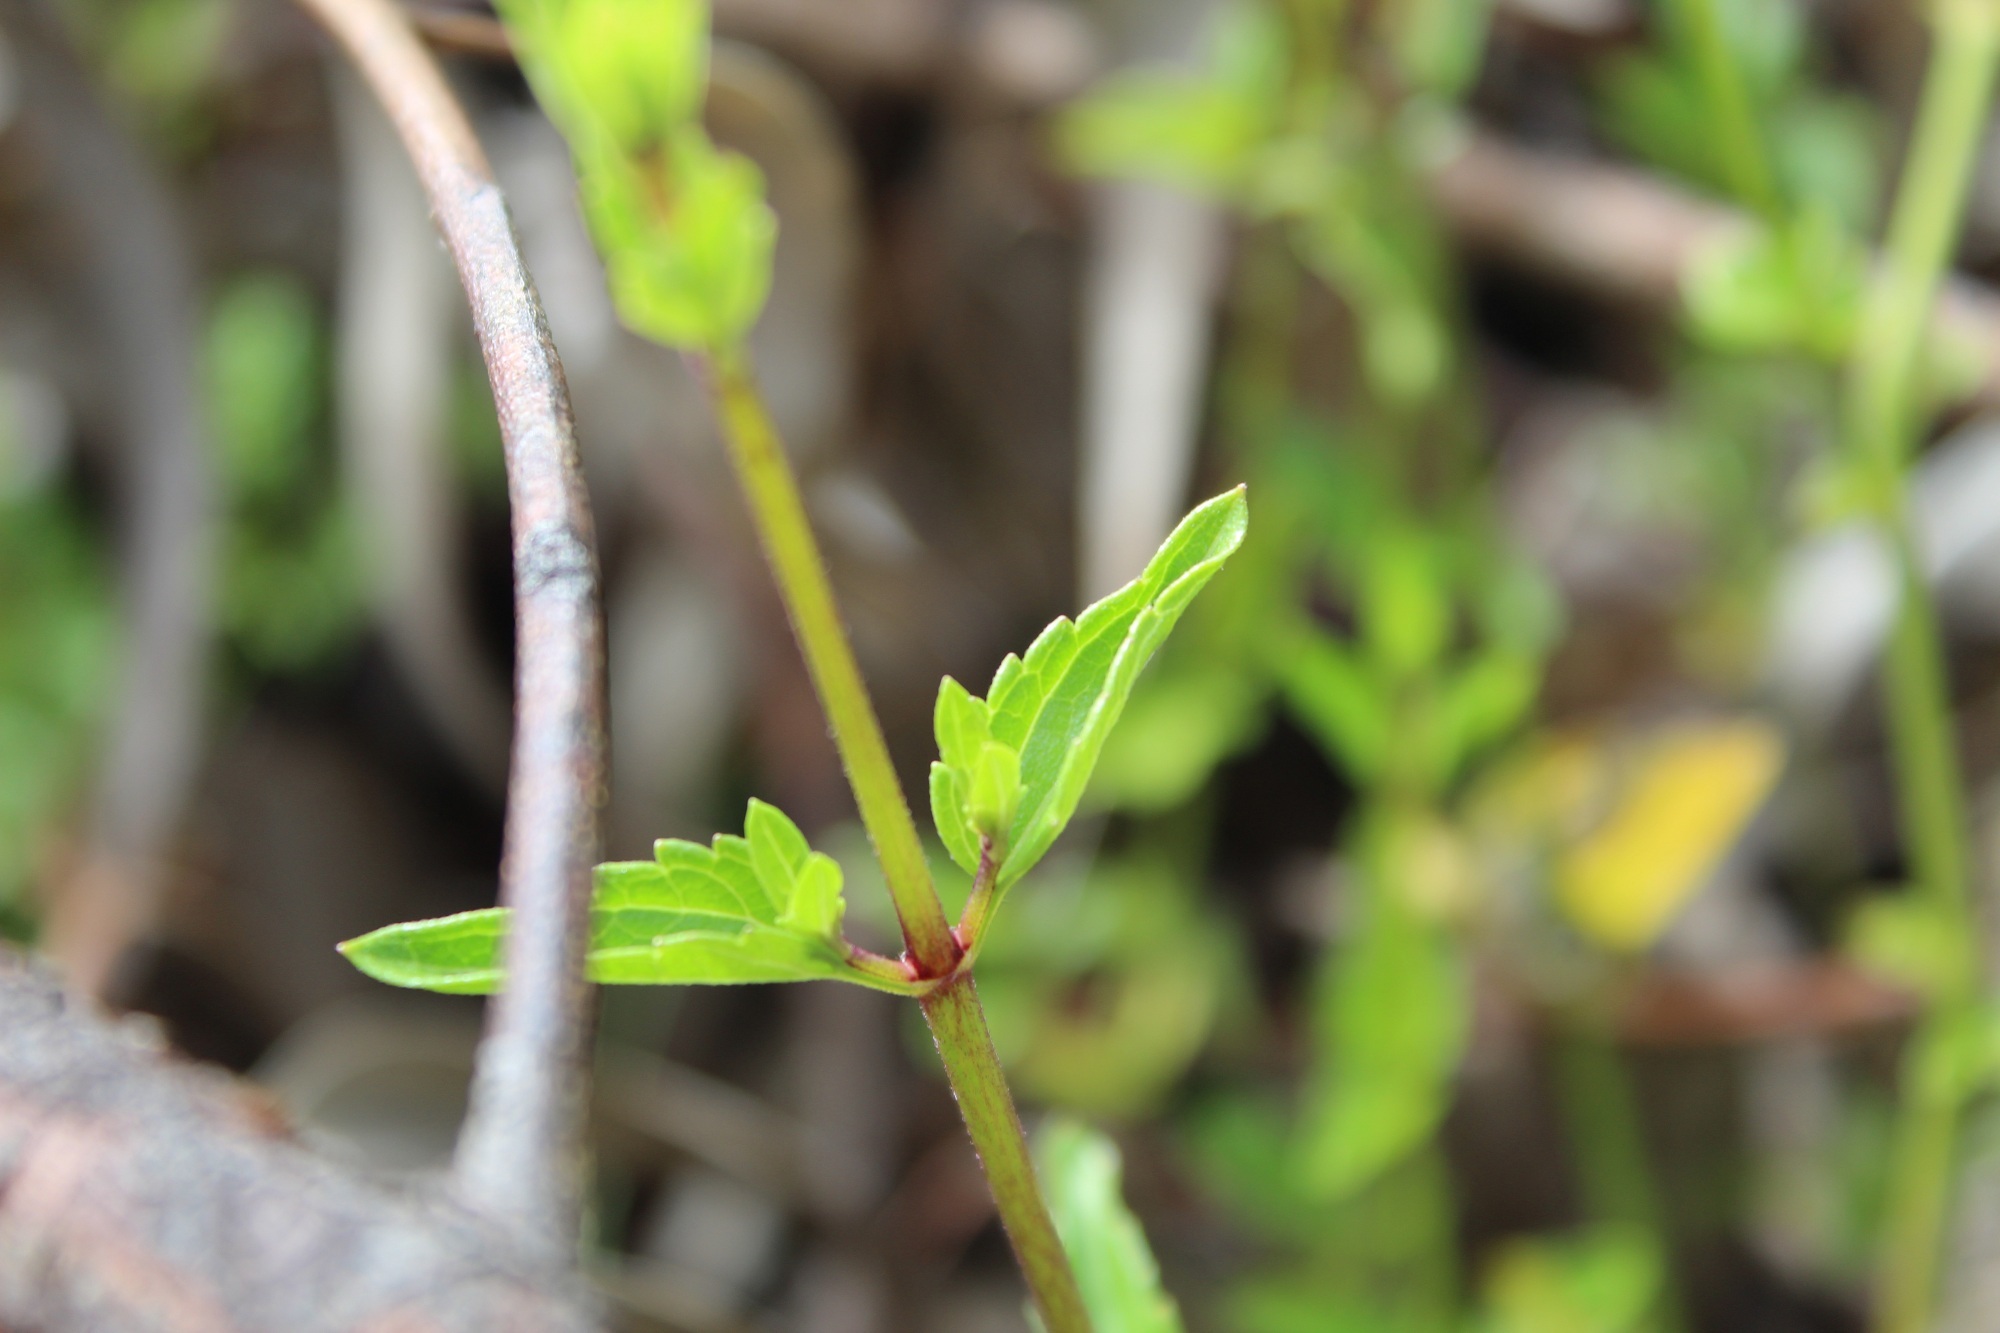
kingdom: Plantae
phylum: Tracheophyta
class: Magnoliopsida
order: Asterales
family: Asteraceae
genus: Ageratina
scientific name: Ageratina gracilis
